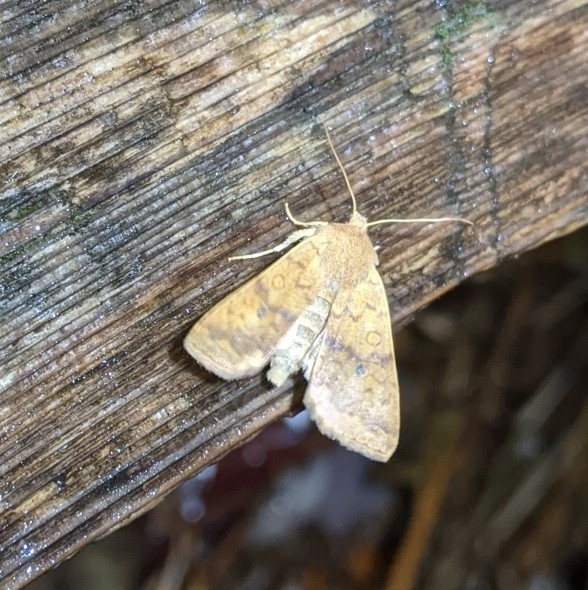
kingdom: Animalia
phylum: Arthropoda
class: Insecta
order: Lepidoptera
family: Noctuidae
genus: Agrochola
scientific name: Agrochola bicolorago
